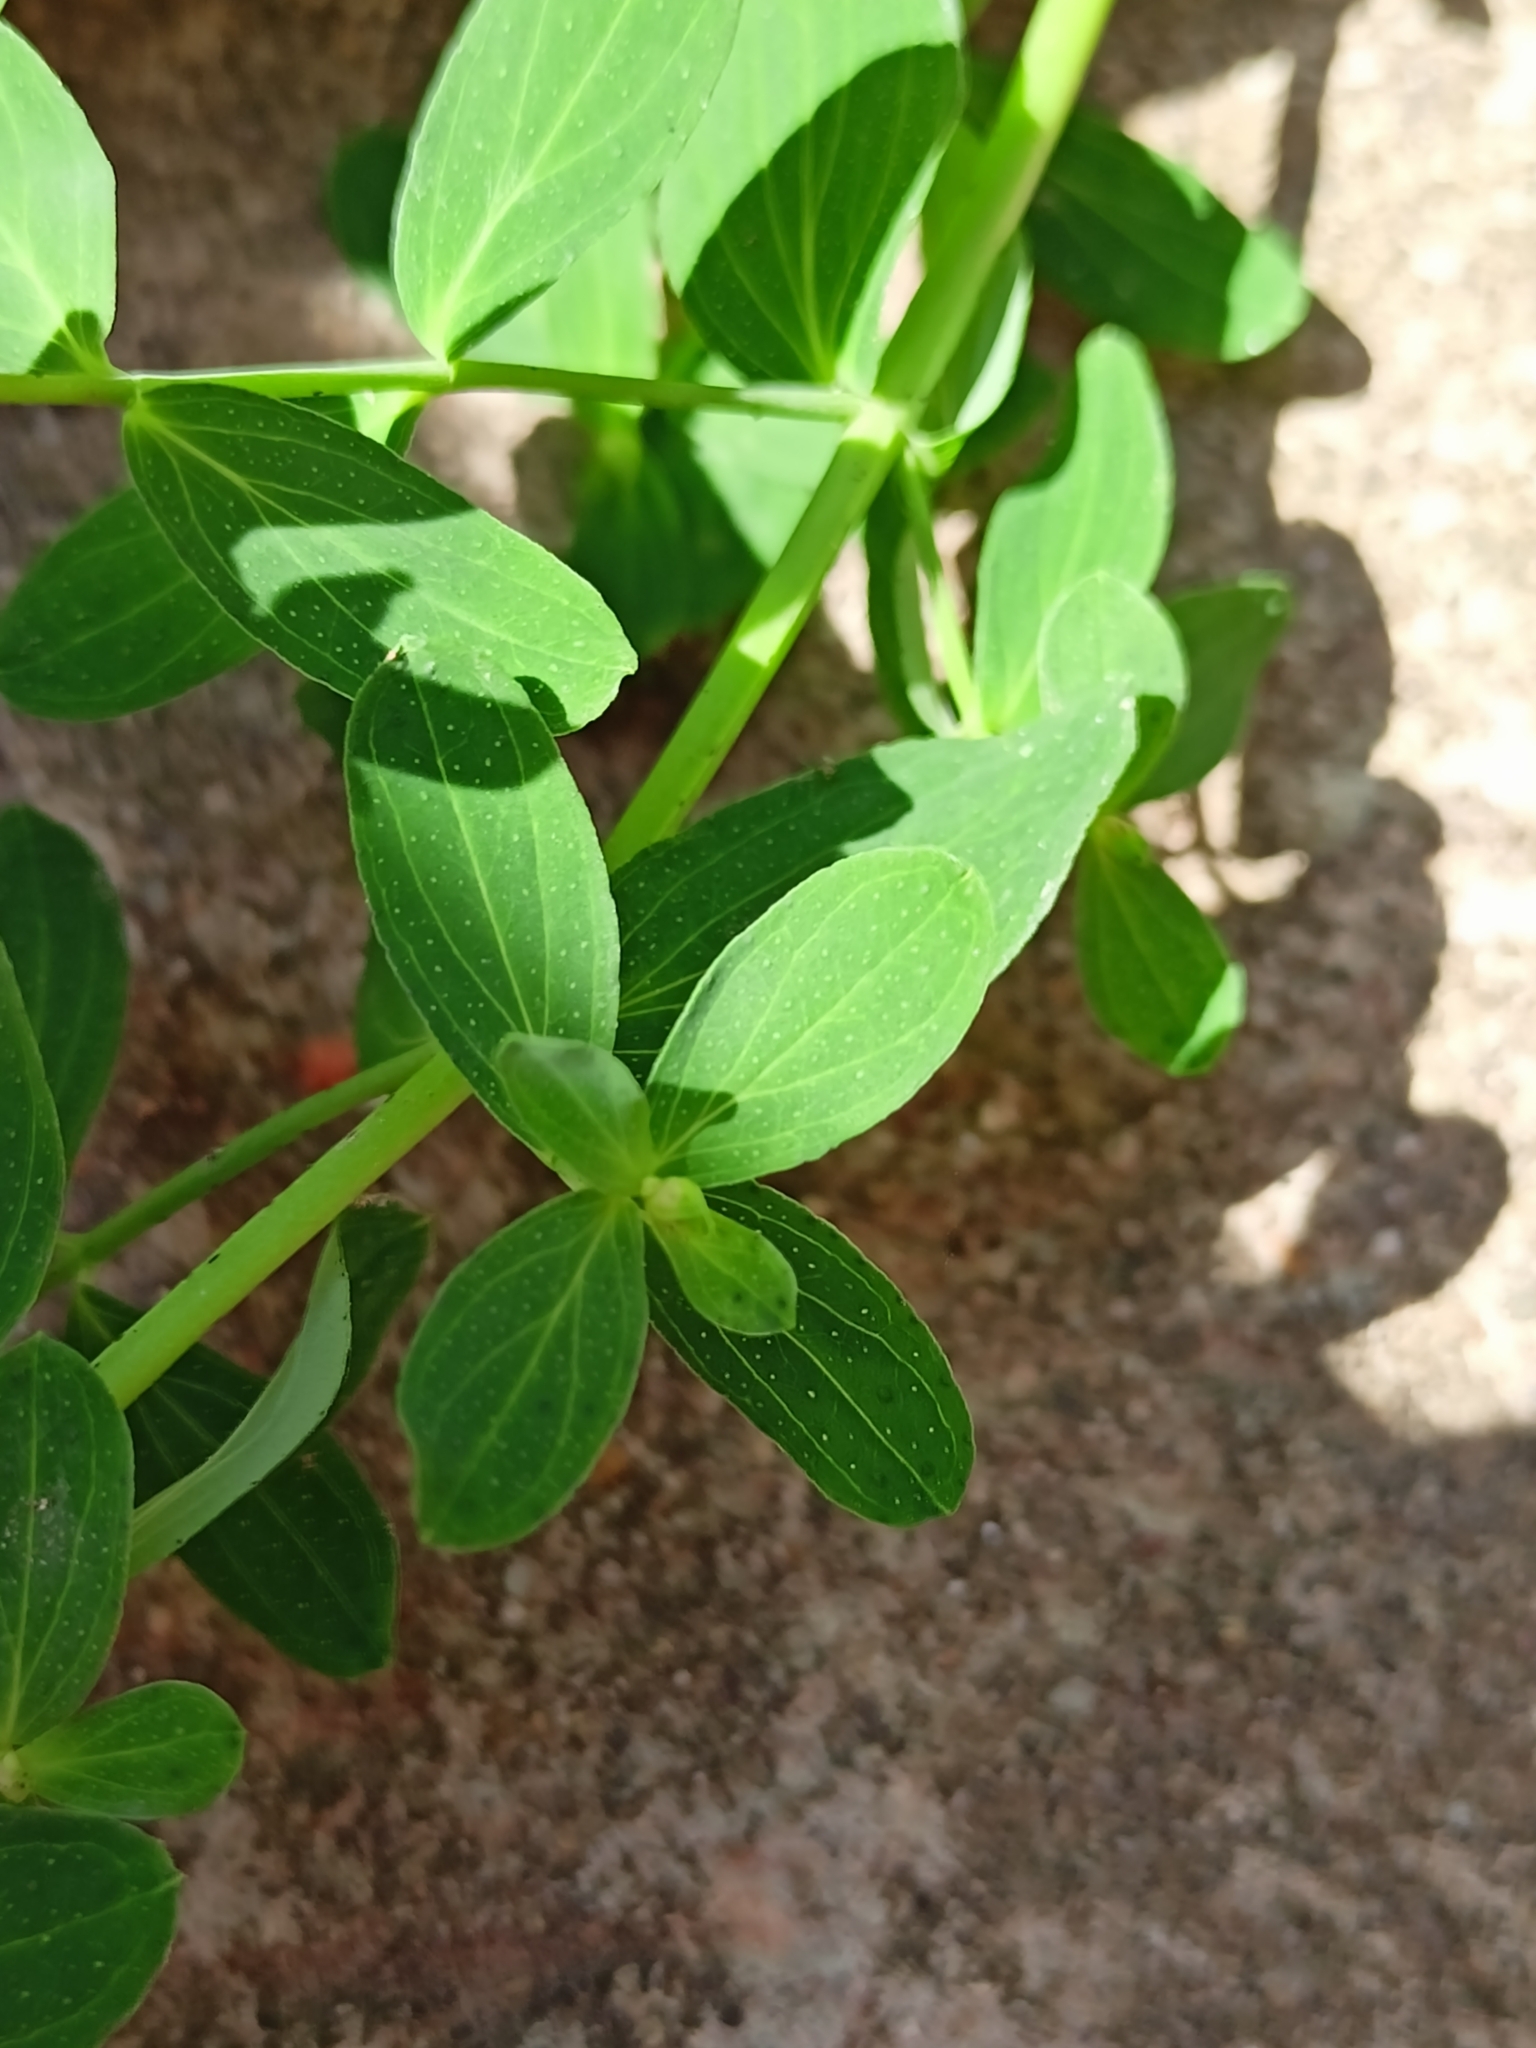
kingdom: Plantae
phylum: Tracheophyta
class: Magnoliopsida
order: Malpighiales
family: Hypericaceae
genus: Hypericum
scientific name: Hypericum perforatum
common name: Common st. johnswort
